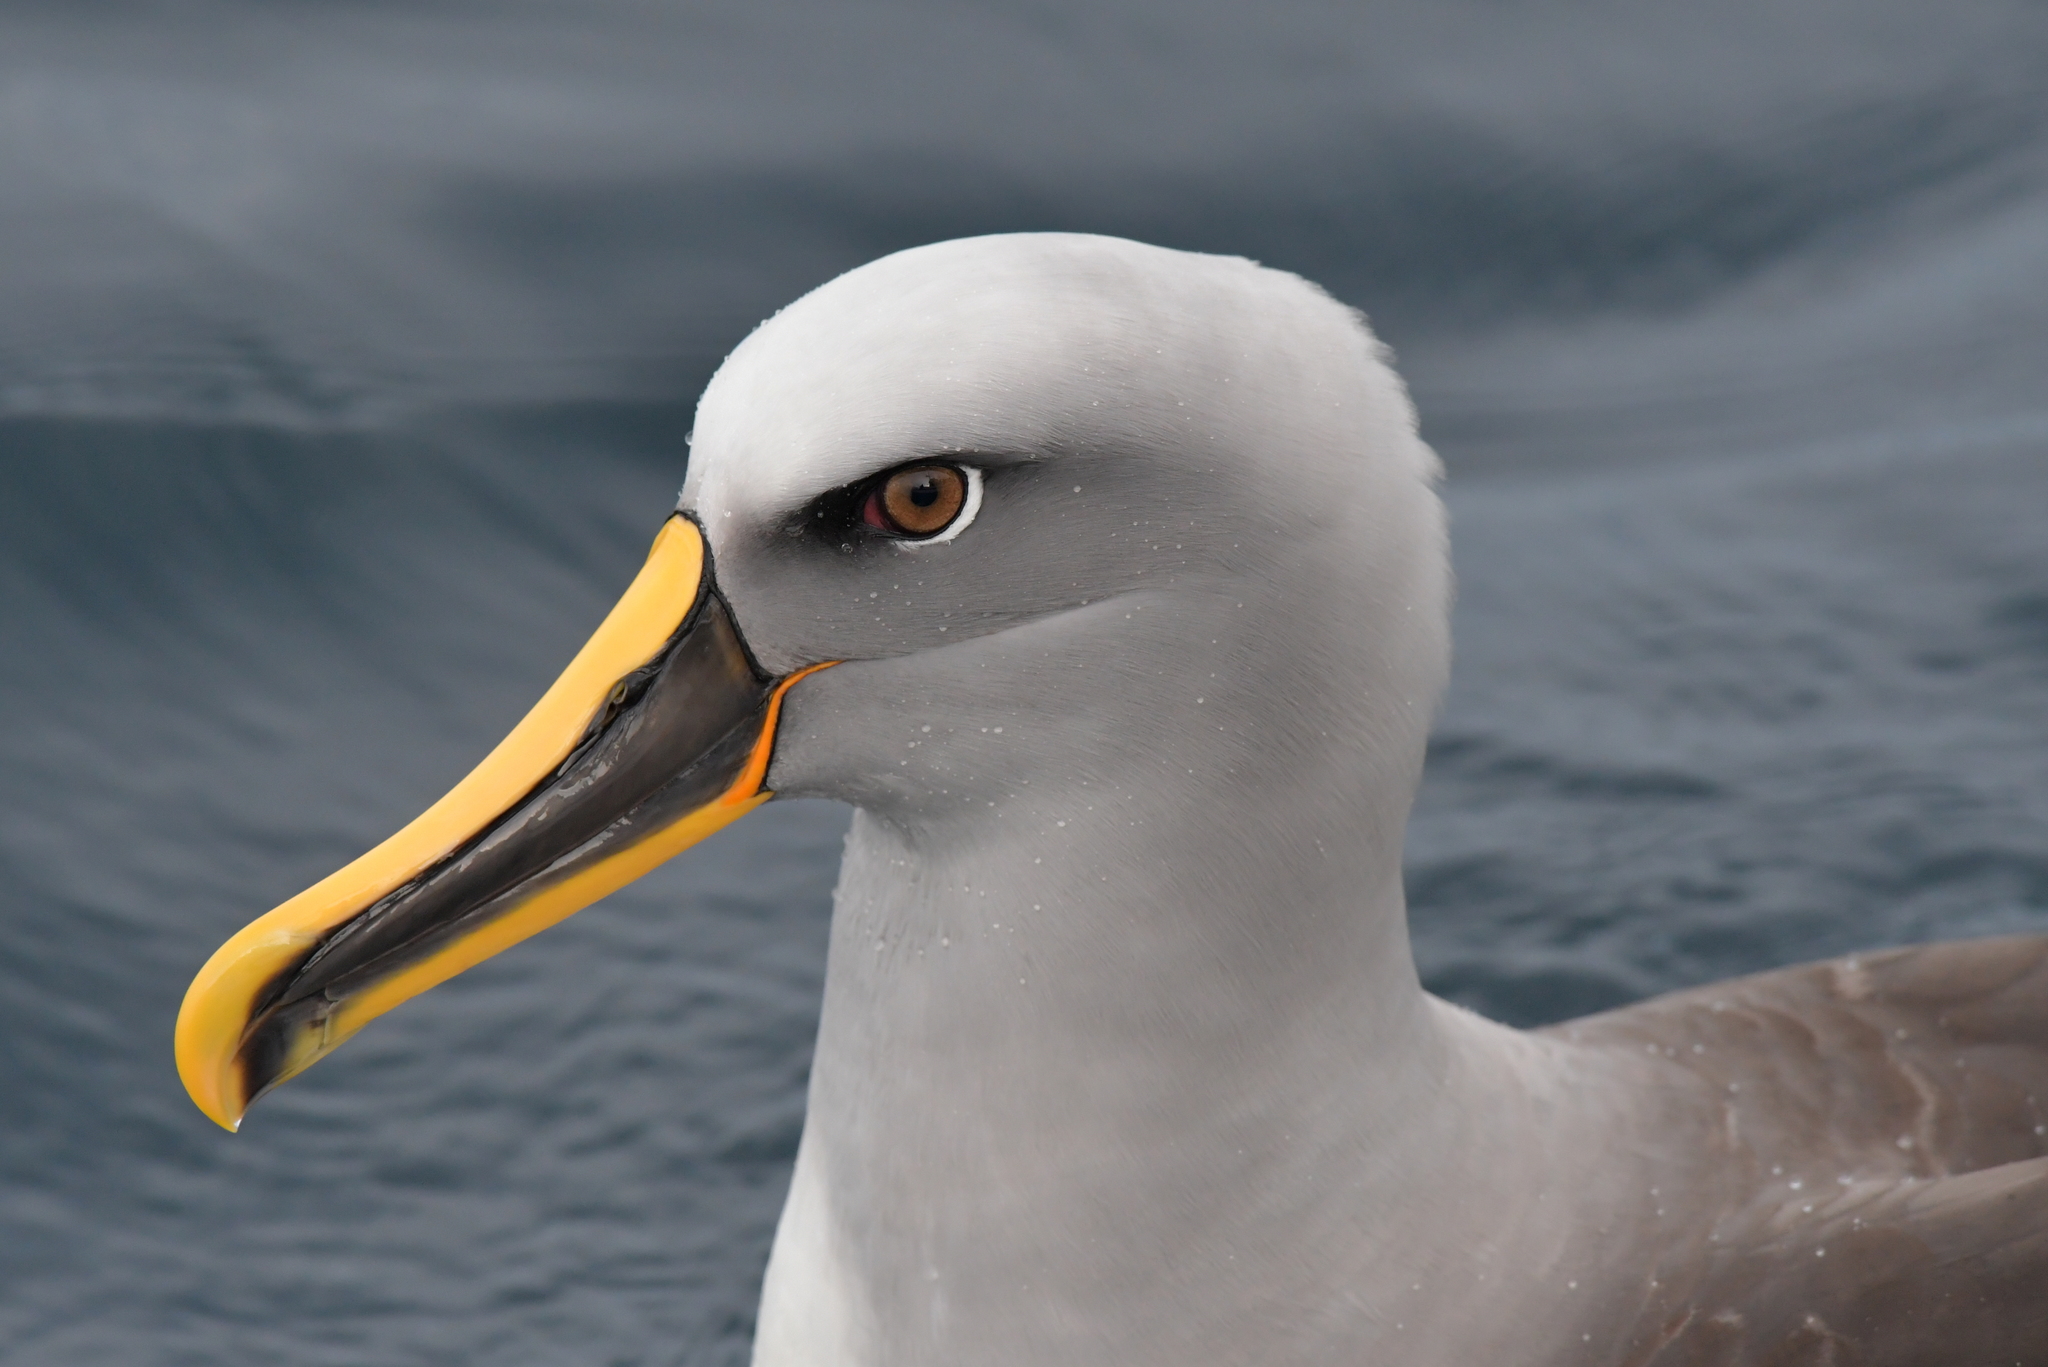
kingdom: Animalia
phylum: Chordata
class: Aves
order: Procellariiformes
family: Diomedeidae
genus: Thalassarche
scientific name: Thalassarche bulleri
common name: Buller's albatross
